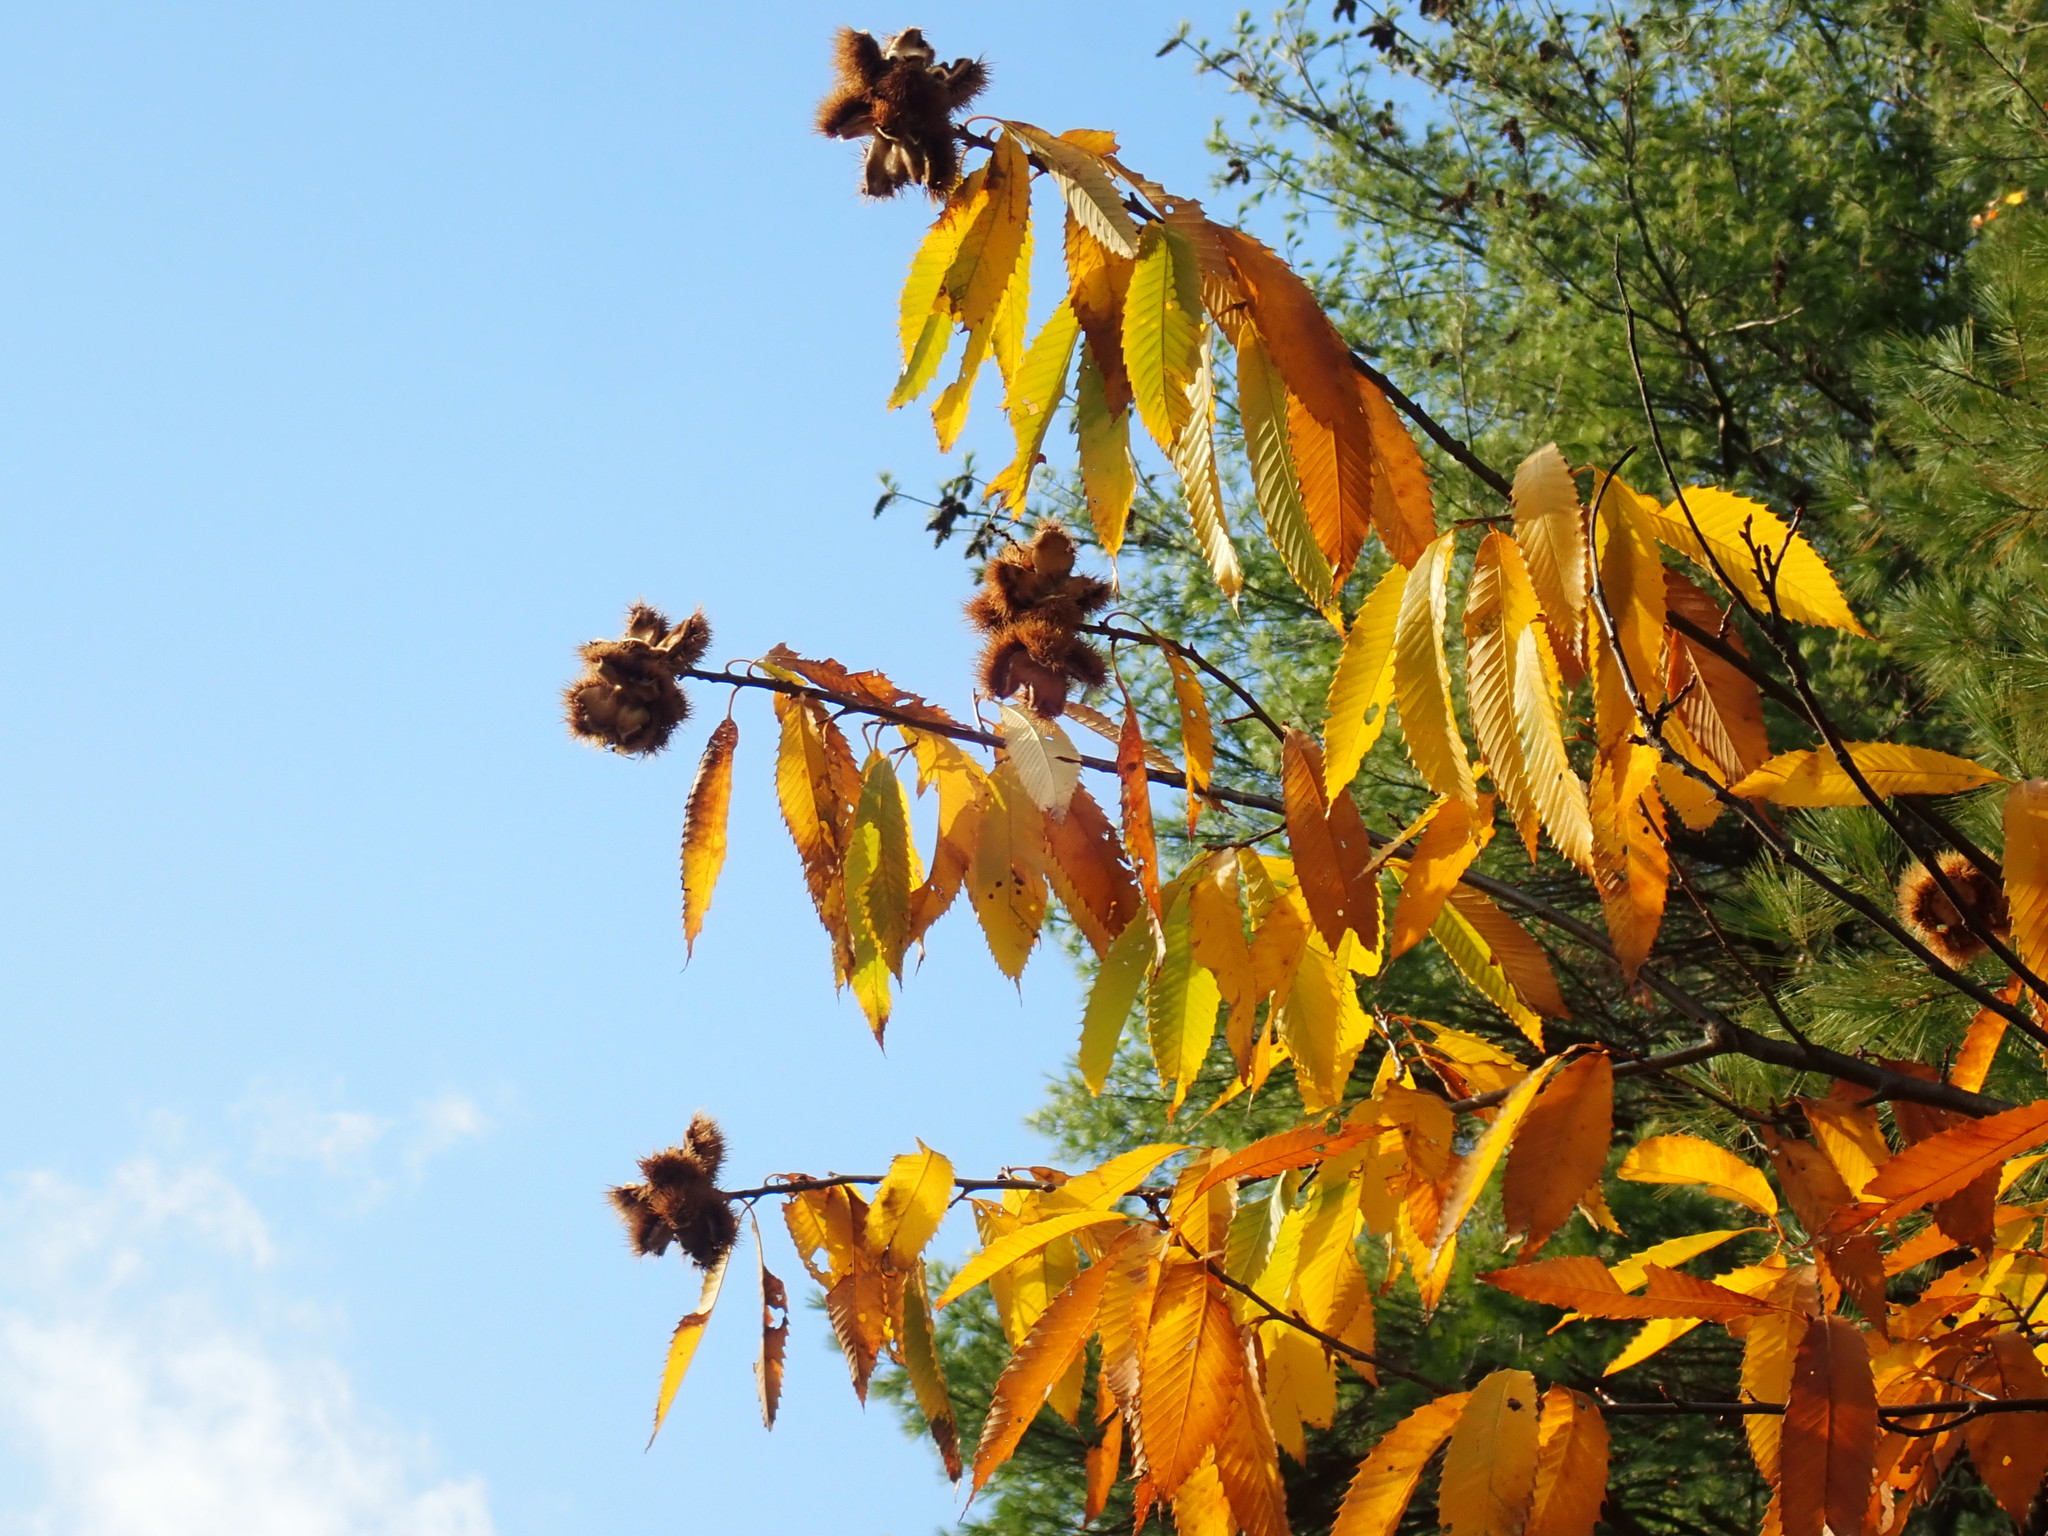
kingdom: Plantae
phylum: Tracheophyta
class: Magnoliopsida
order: Fagales
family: Fagaceae
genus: Castanea
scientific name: Castanea dentata
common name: American chestnut
